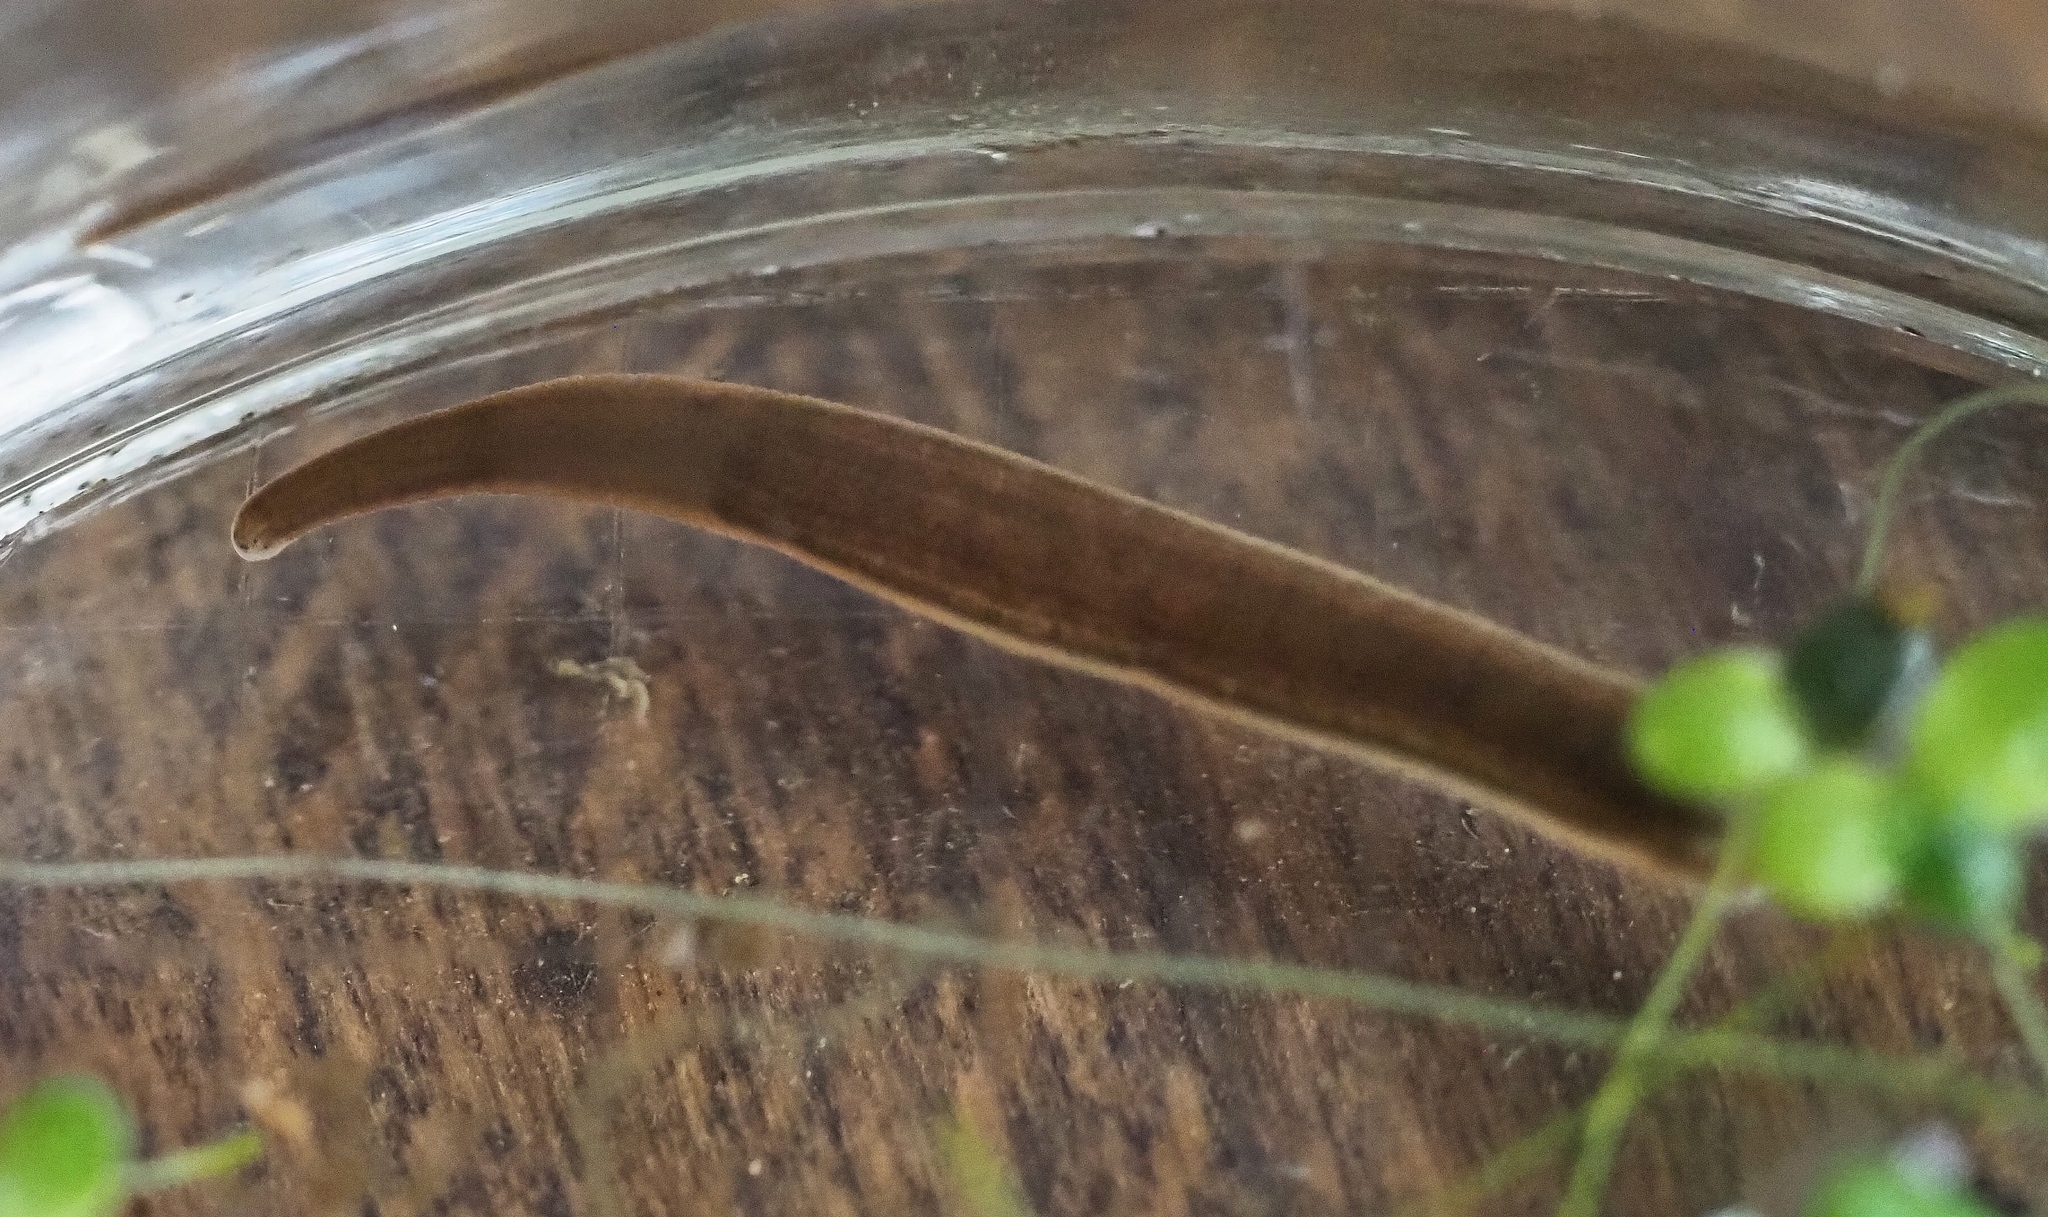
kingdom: Animalia
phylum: Annelida
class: Clitellata
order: Arhynchobdellida
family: Erpobdellidae
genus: Trocheta
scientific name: Trocheta subviridis
